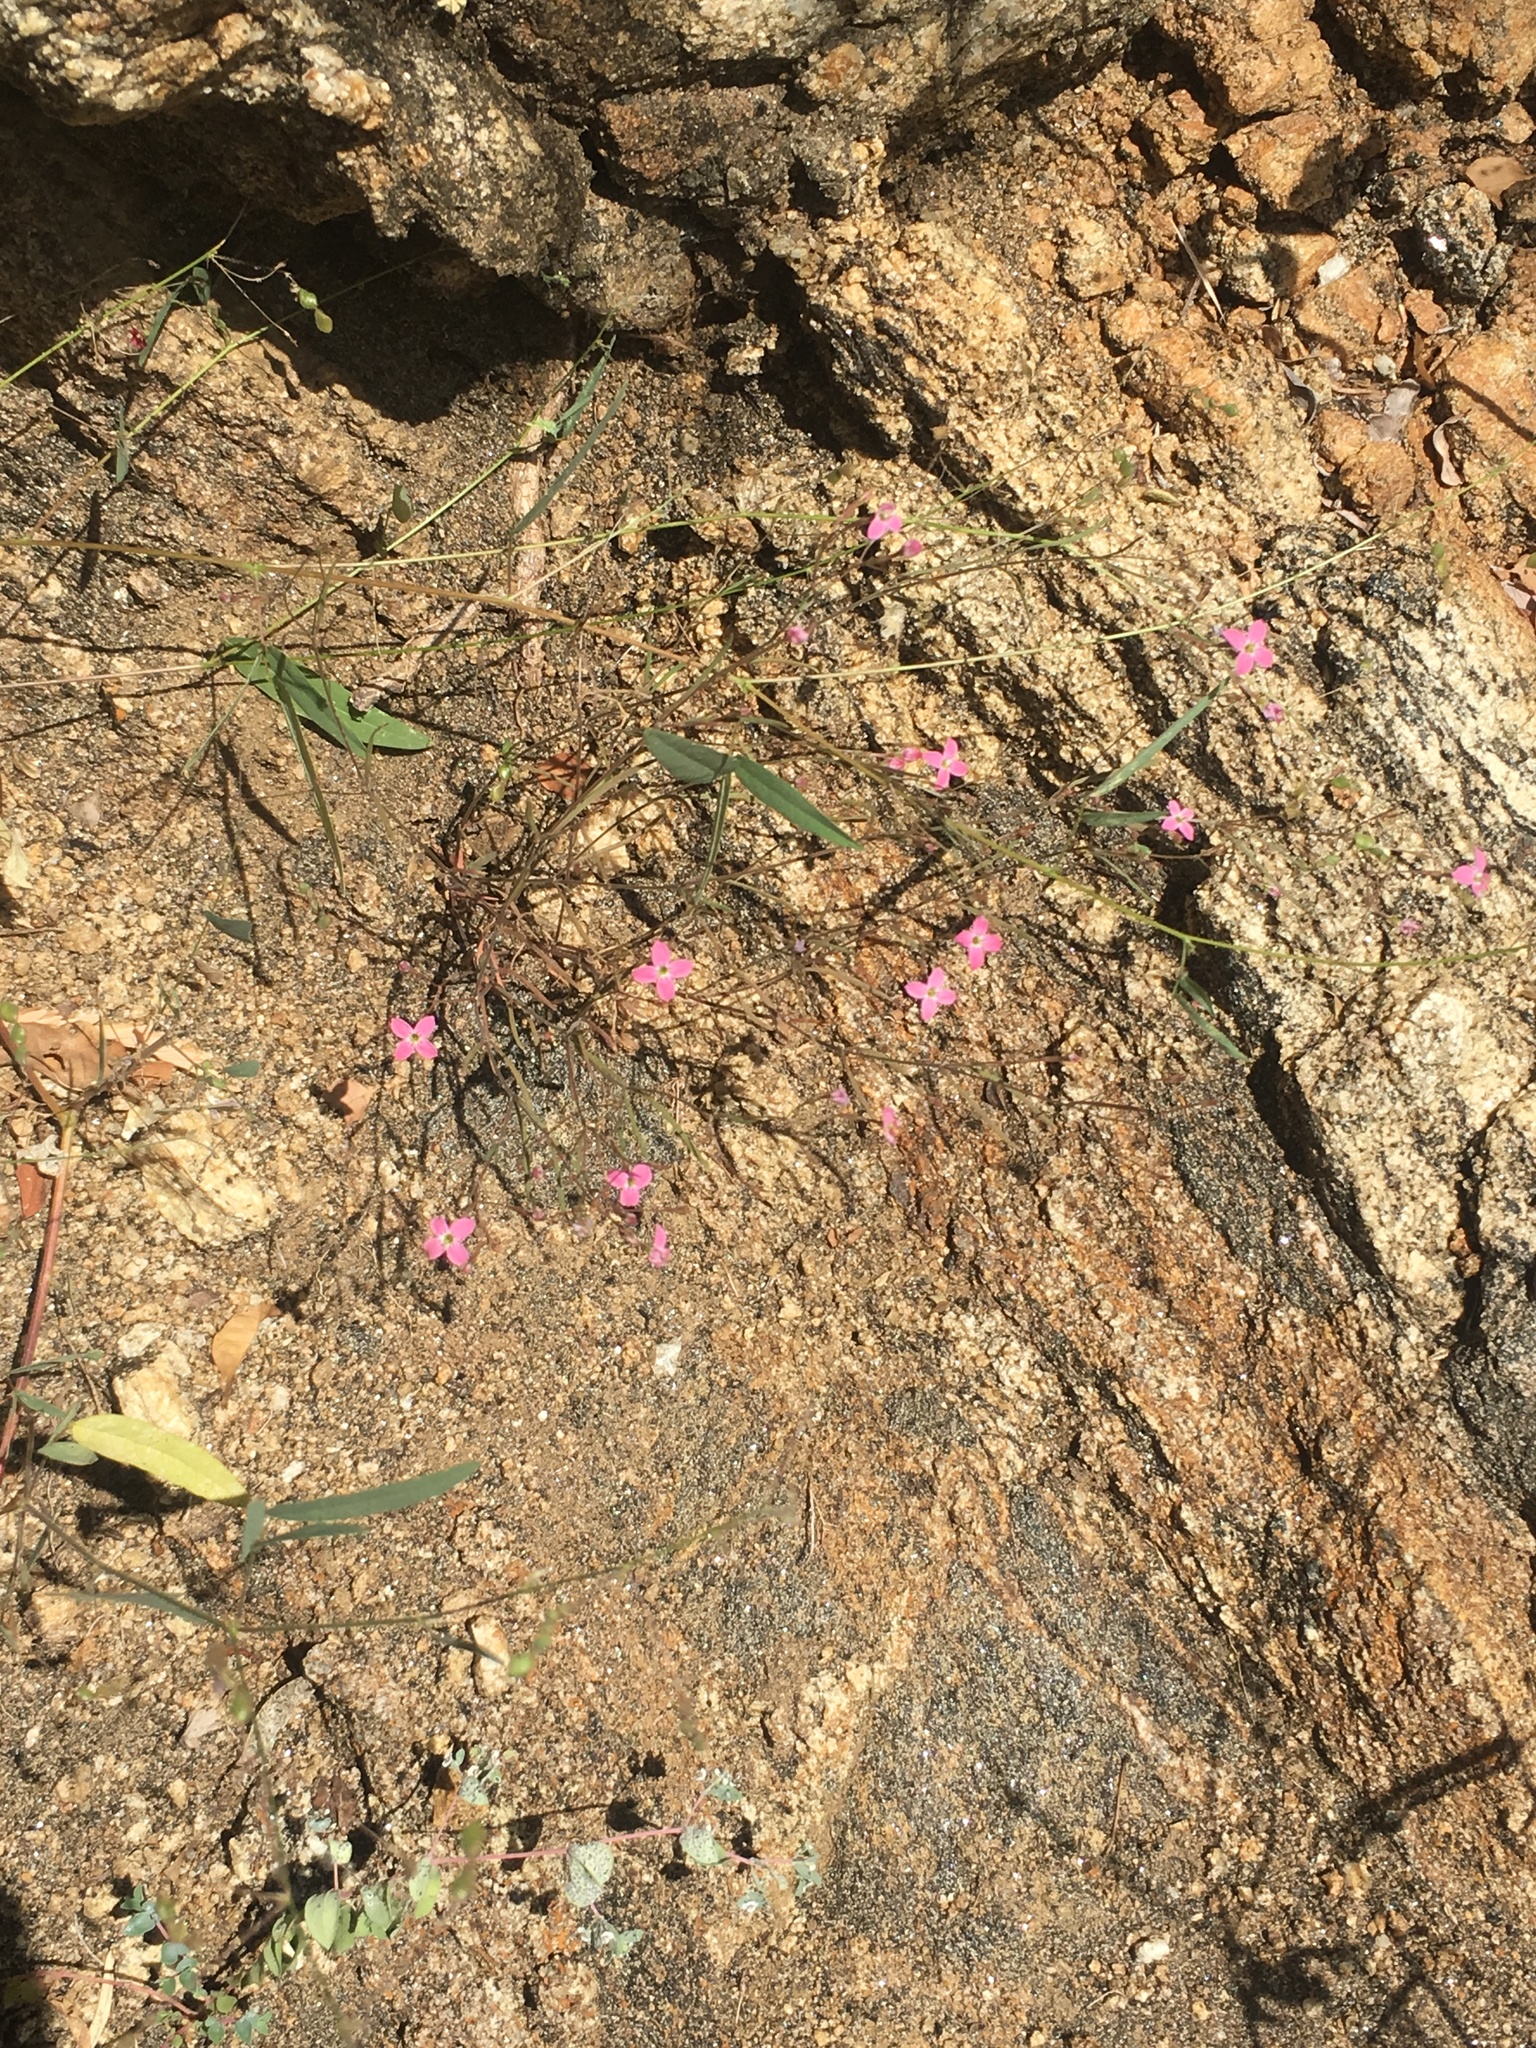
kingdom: Plantae
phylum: Tracheophyta
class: Magnoliopsida
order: Gentianales
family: Rubiaceae
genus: Stenotis
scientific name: Stenotis asperuloides
